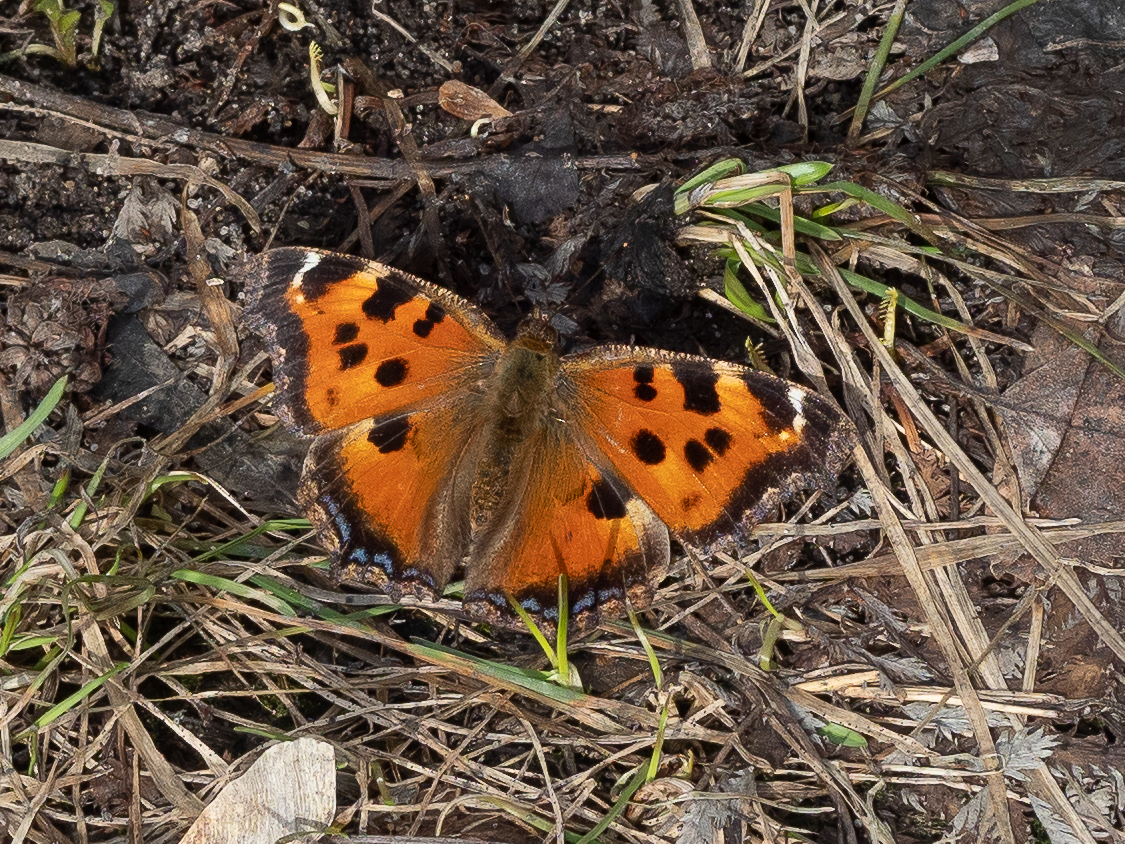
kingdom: Animalia
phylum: Arthropoda
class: Insecta
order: Lepidoptera
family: Nymphalidae
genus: Nymphalis
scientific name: Nymphalis xanthomelas
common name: Scarce tortoiseshell
